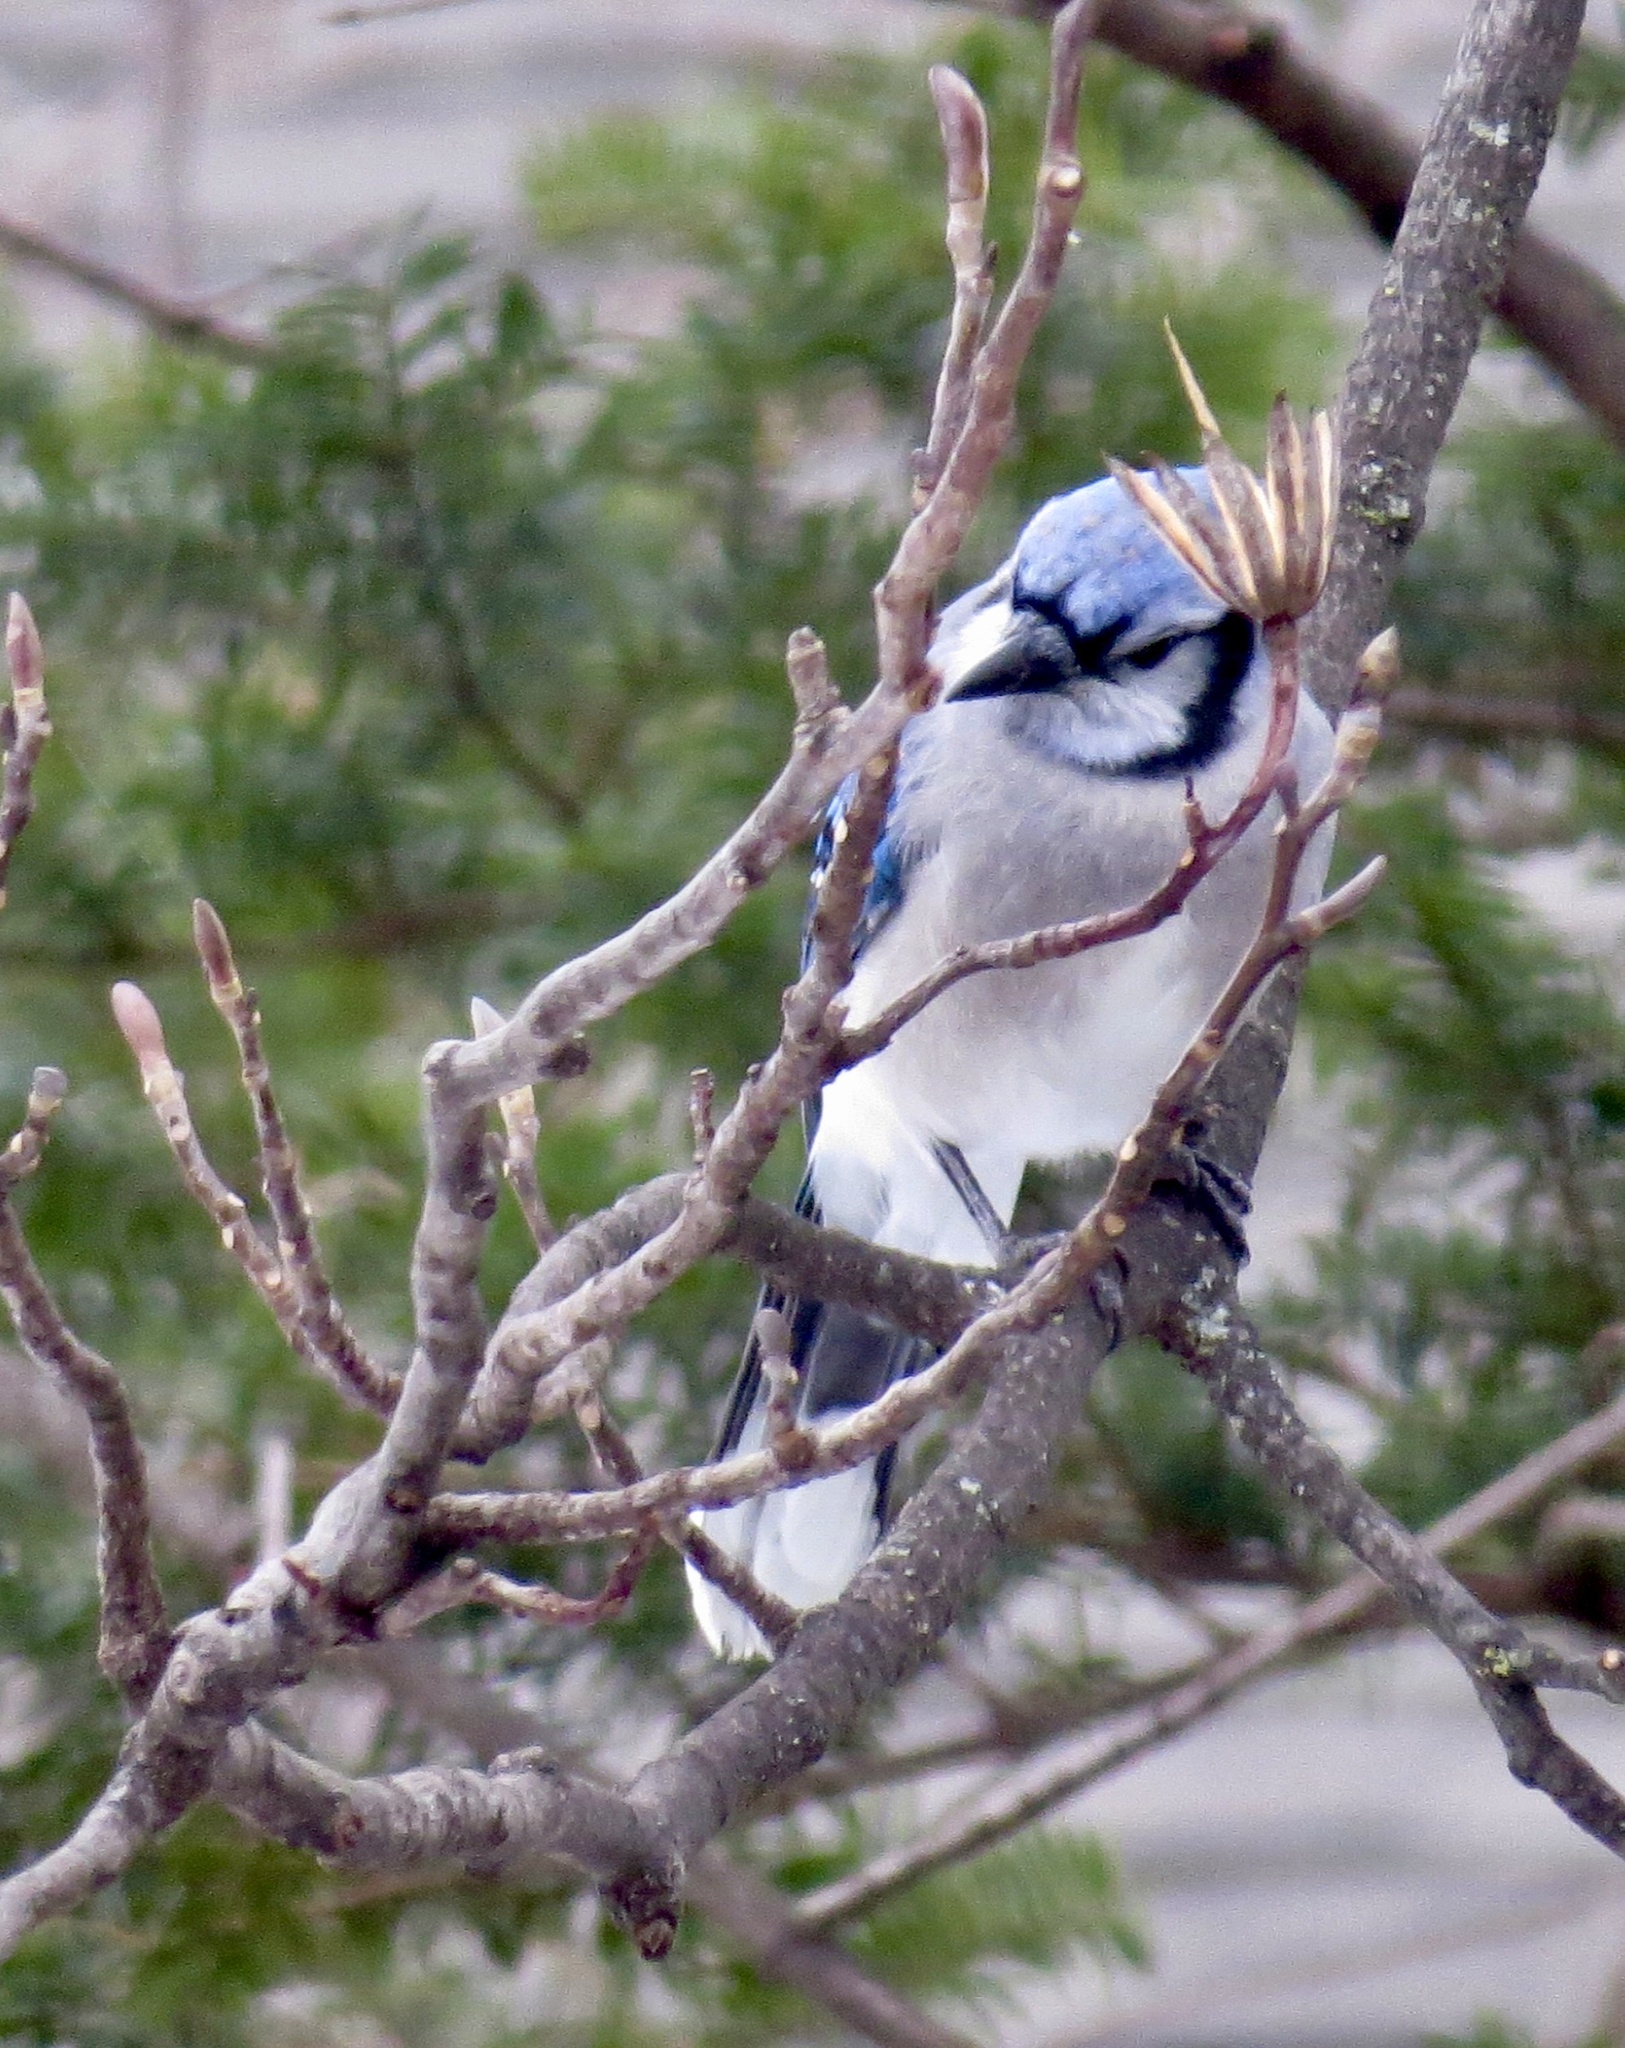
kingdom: Animalia
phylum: Chordata
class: Aves
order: Passeriformes
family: Corvidae
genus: Cyanocitta
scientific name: Cyanocitta cristata
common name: Blue jay
